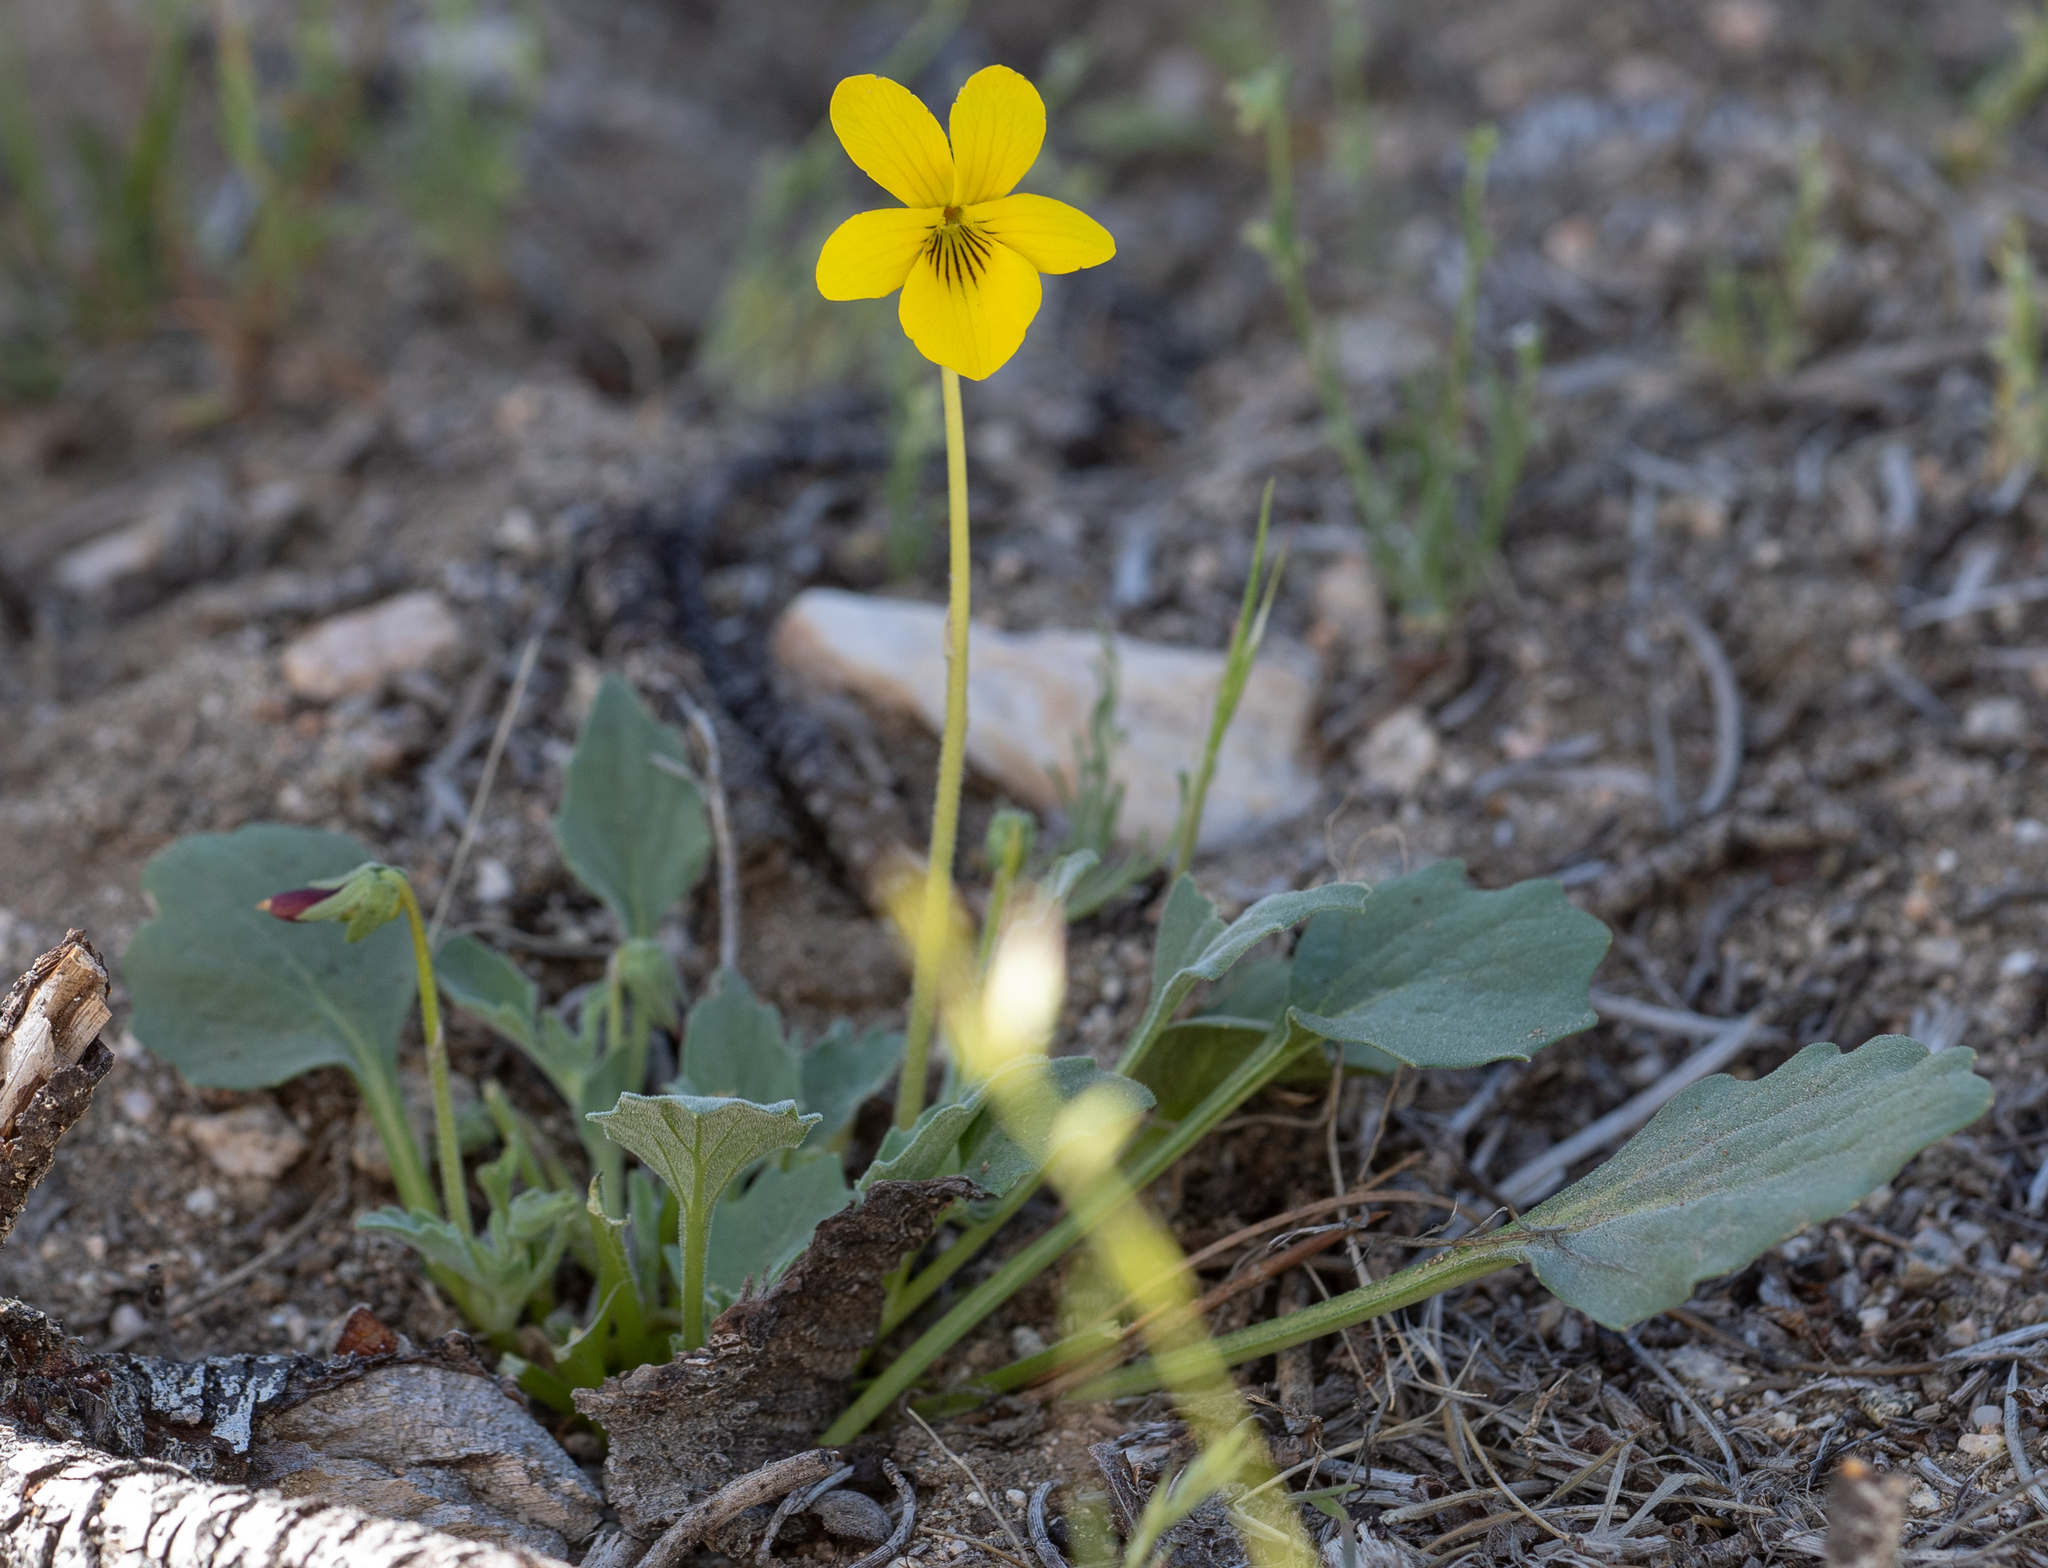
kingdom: Plantae
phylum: Tracheophyta
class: Magnoliopsida
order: Malpighiales
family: Violaceae
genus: Viola
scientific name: Viola purpurea
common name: Pine violet
